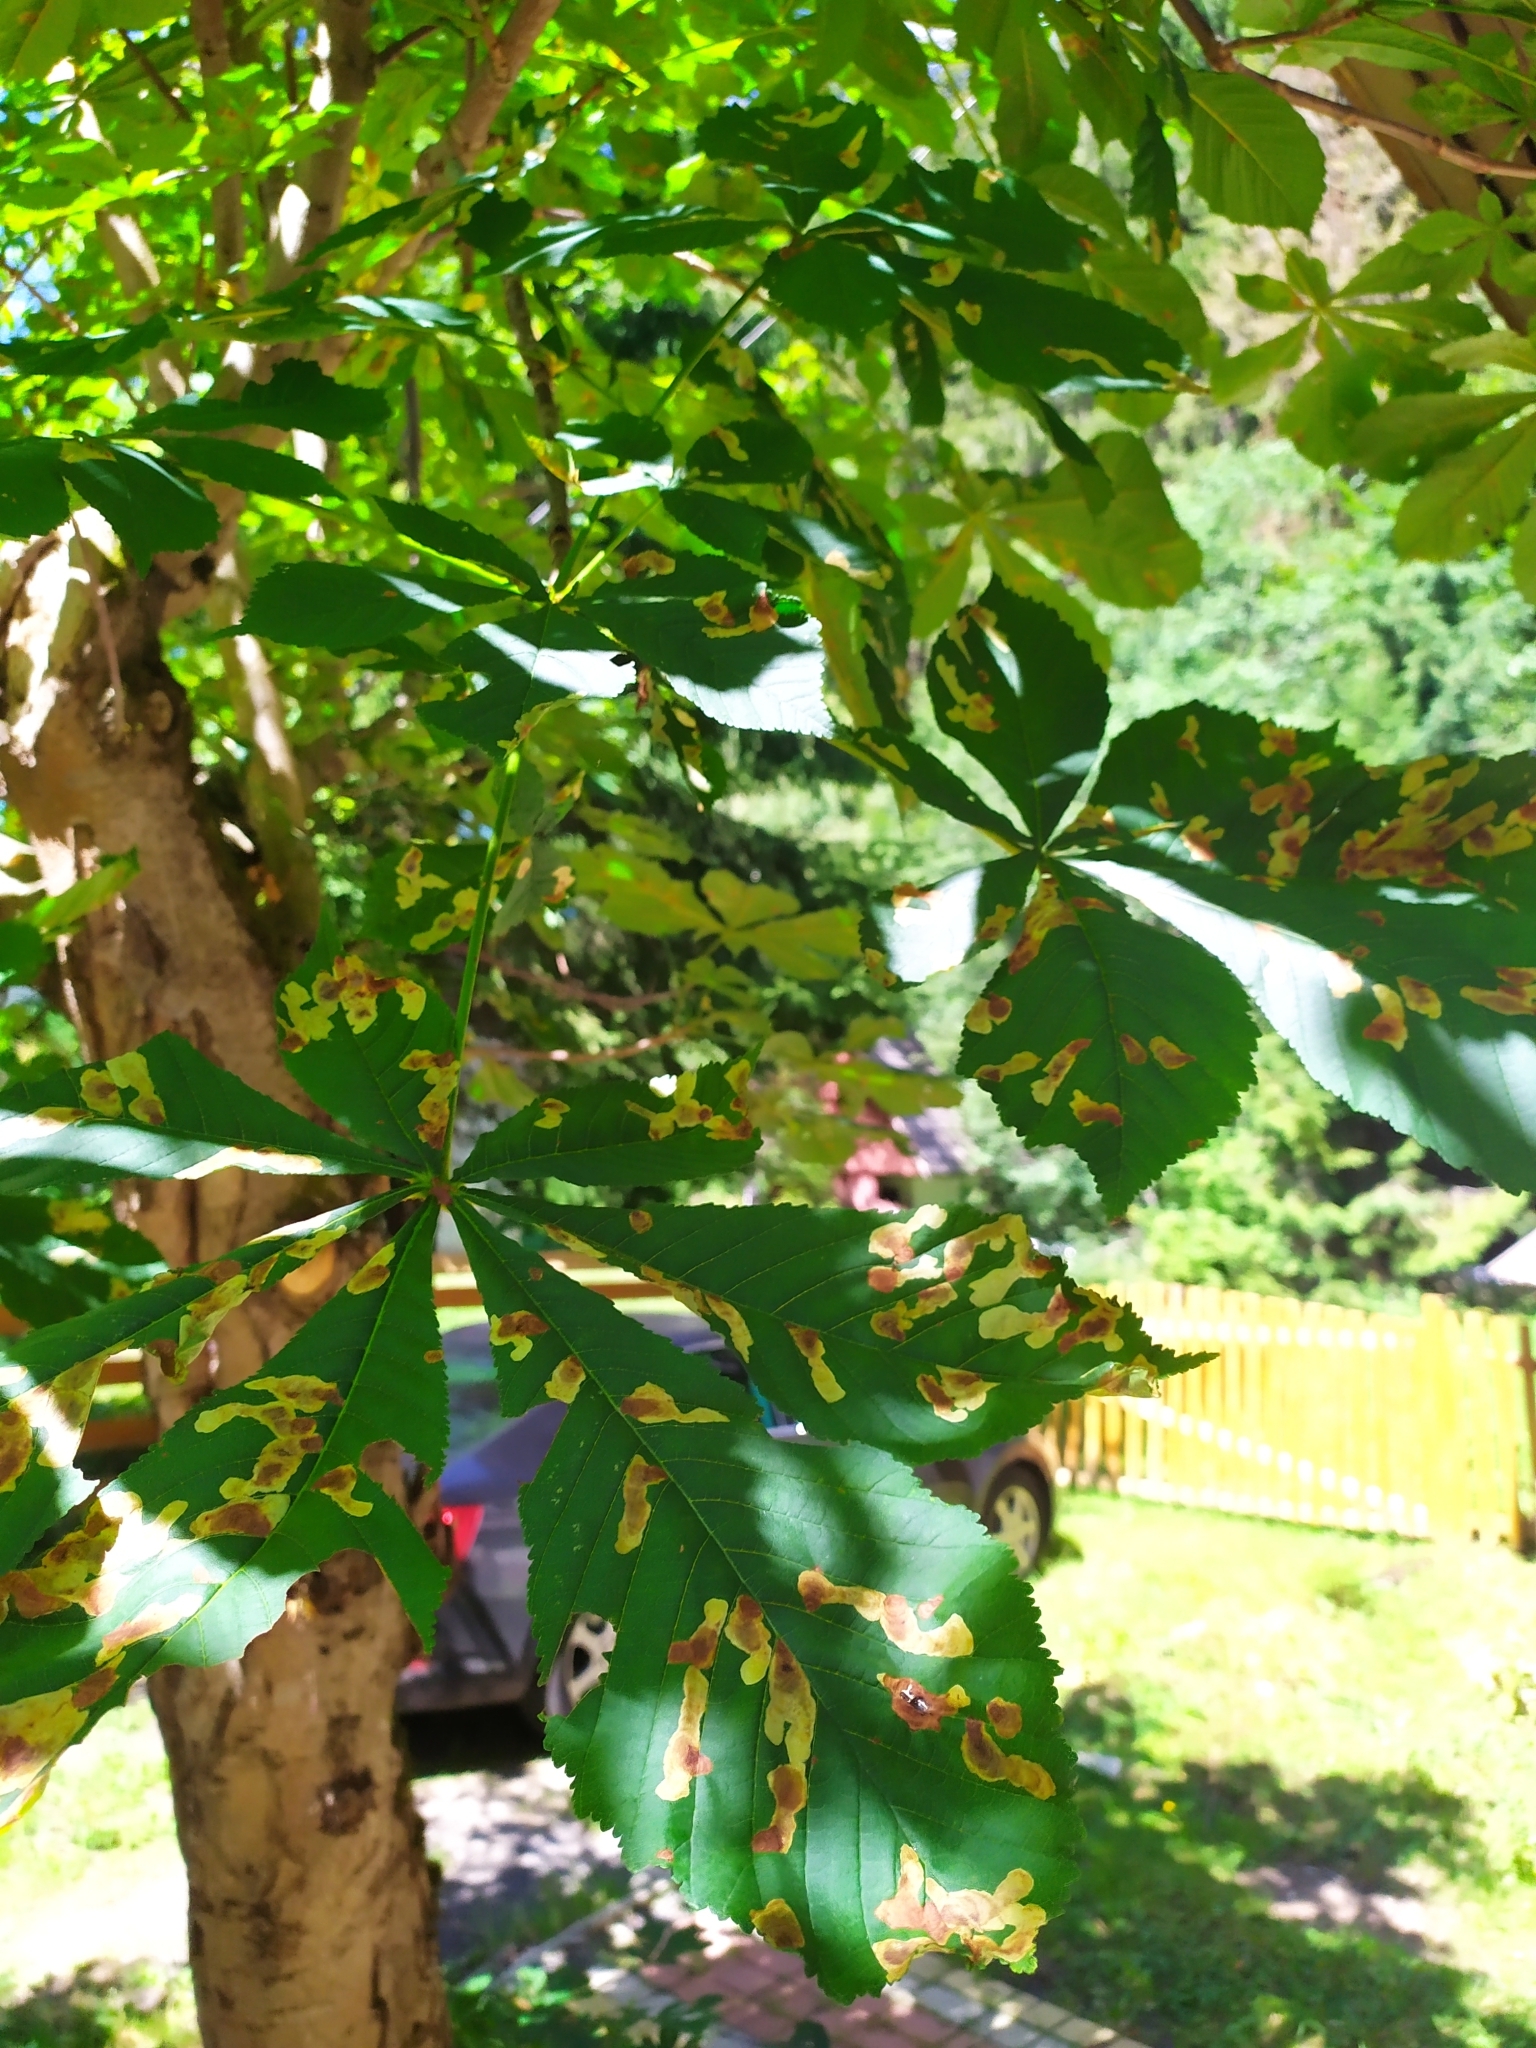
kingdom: Animalia
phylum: Arthropoda
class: Insecta
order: Lepidoptera
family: Gracillariidae
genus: Cameraria
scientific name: Cameraria ohridella
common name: Horse-chestnut leaf-miner
